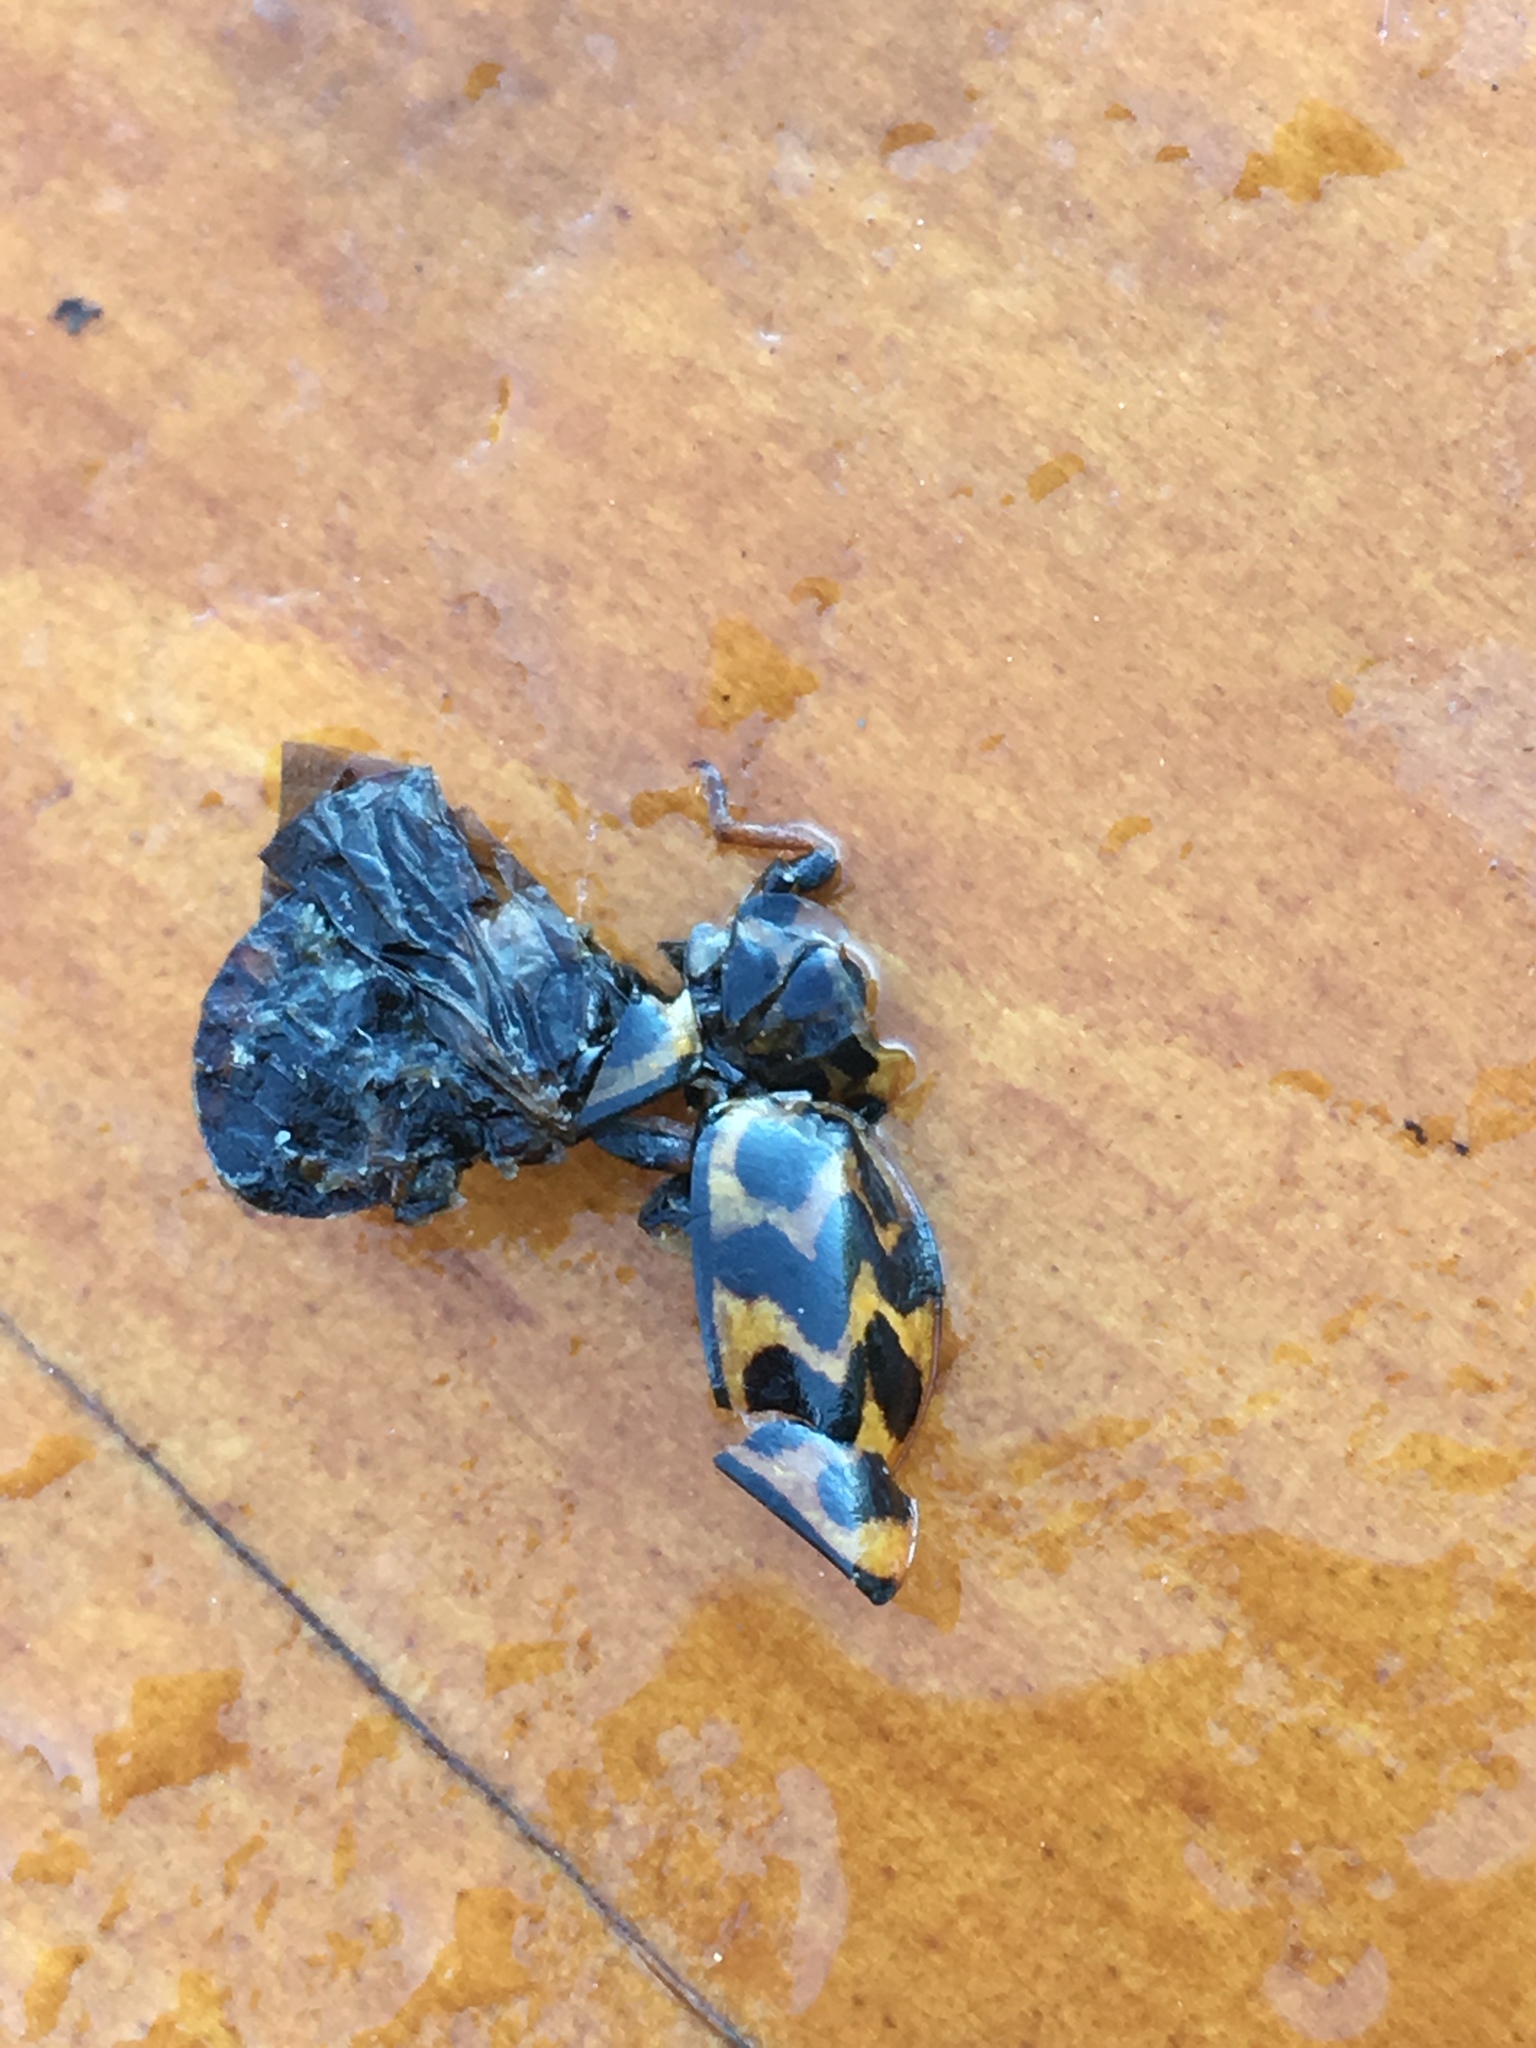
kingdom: Animalia
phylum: Arthropoda
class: Insecta
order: Coleoptera
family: Coccinellidae
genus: Cleobora
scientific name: Cleobora
